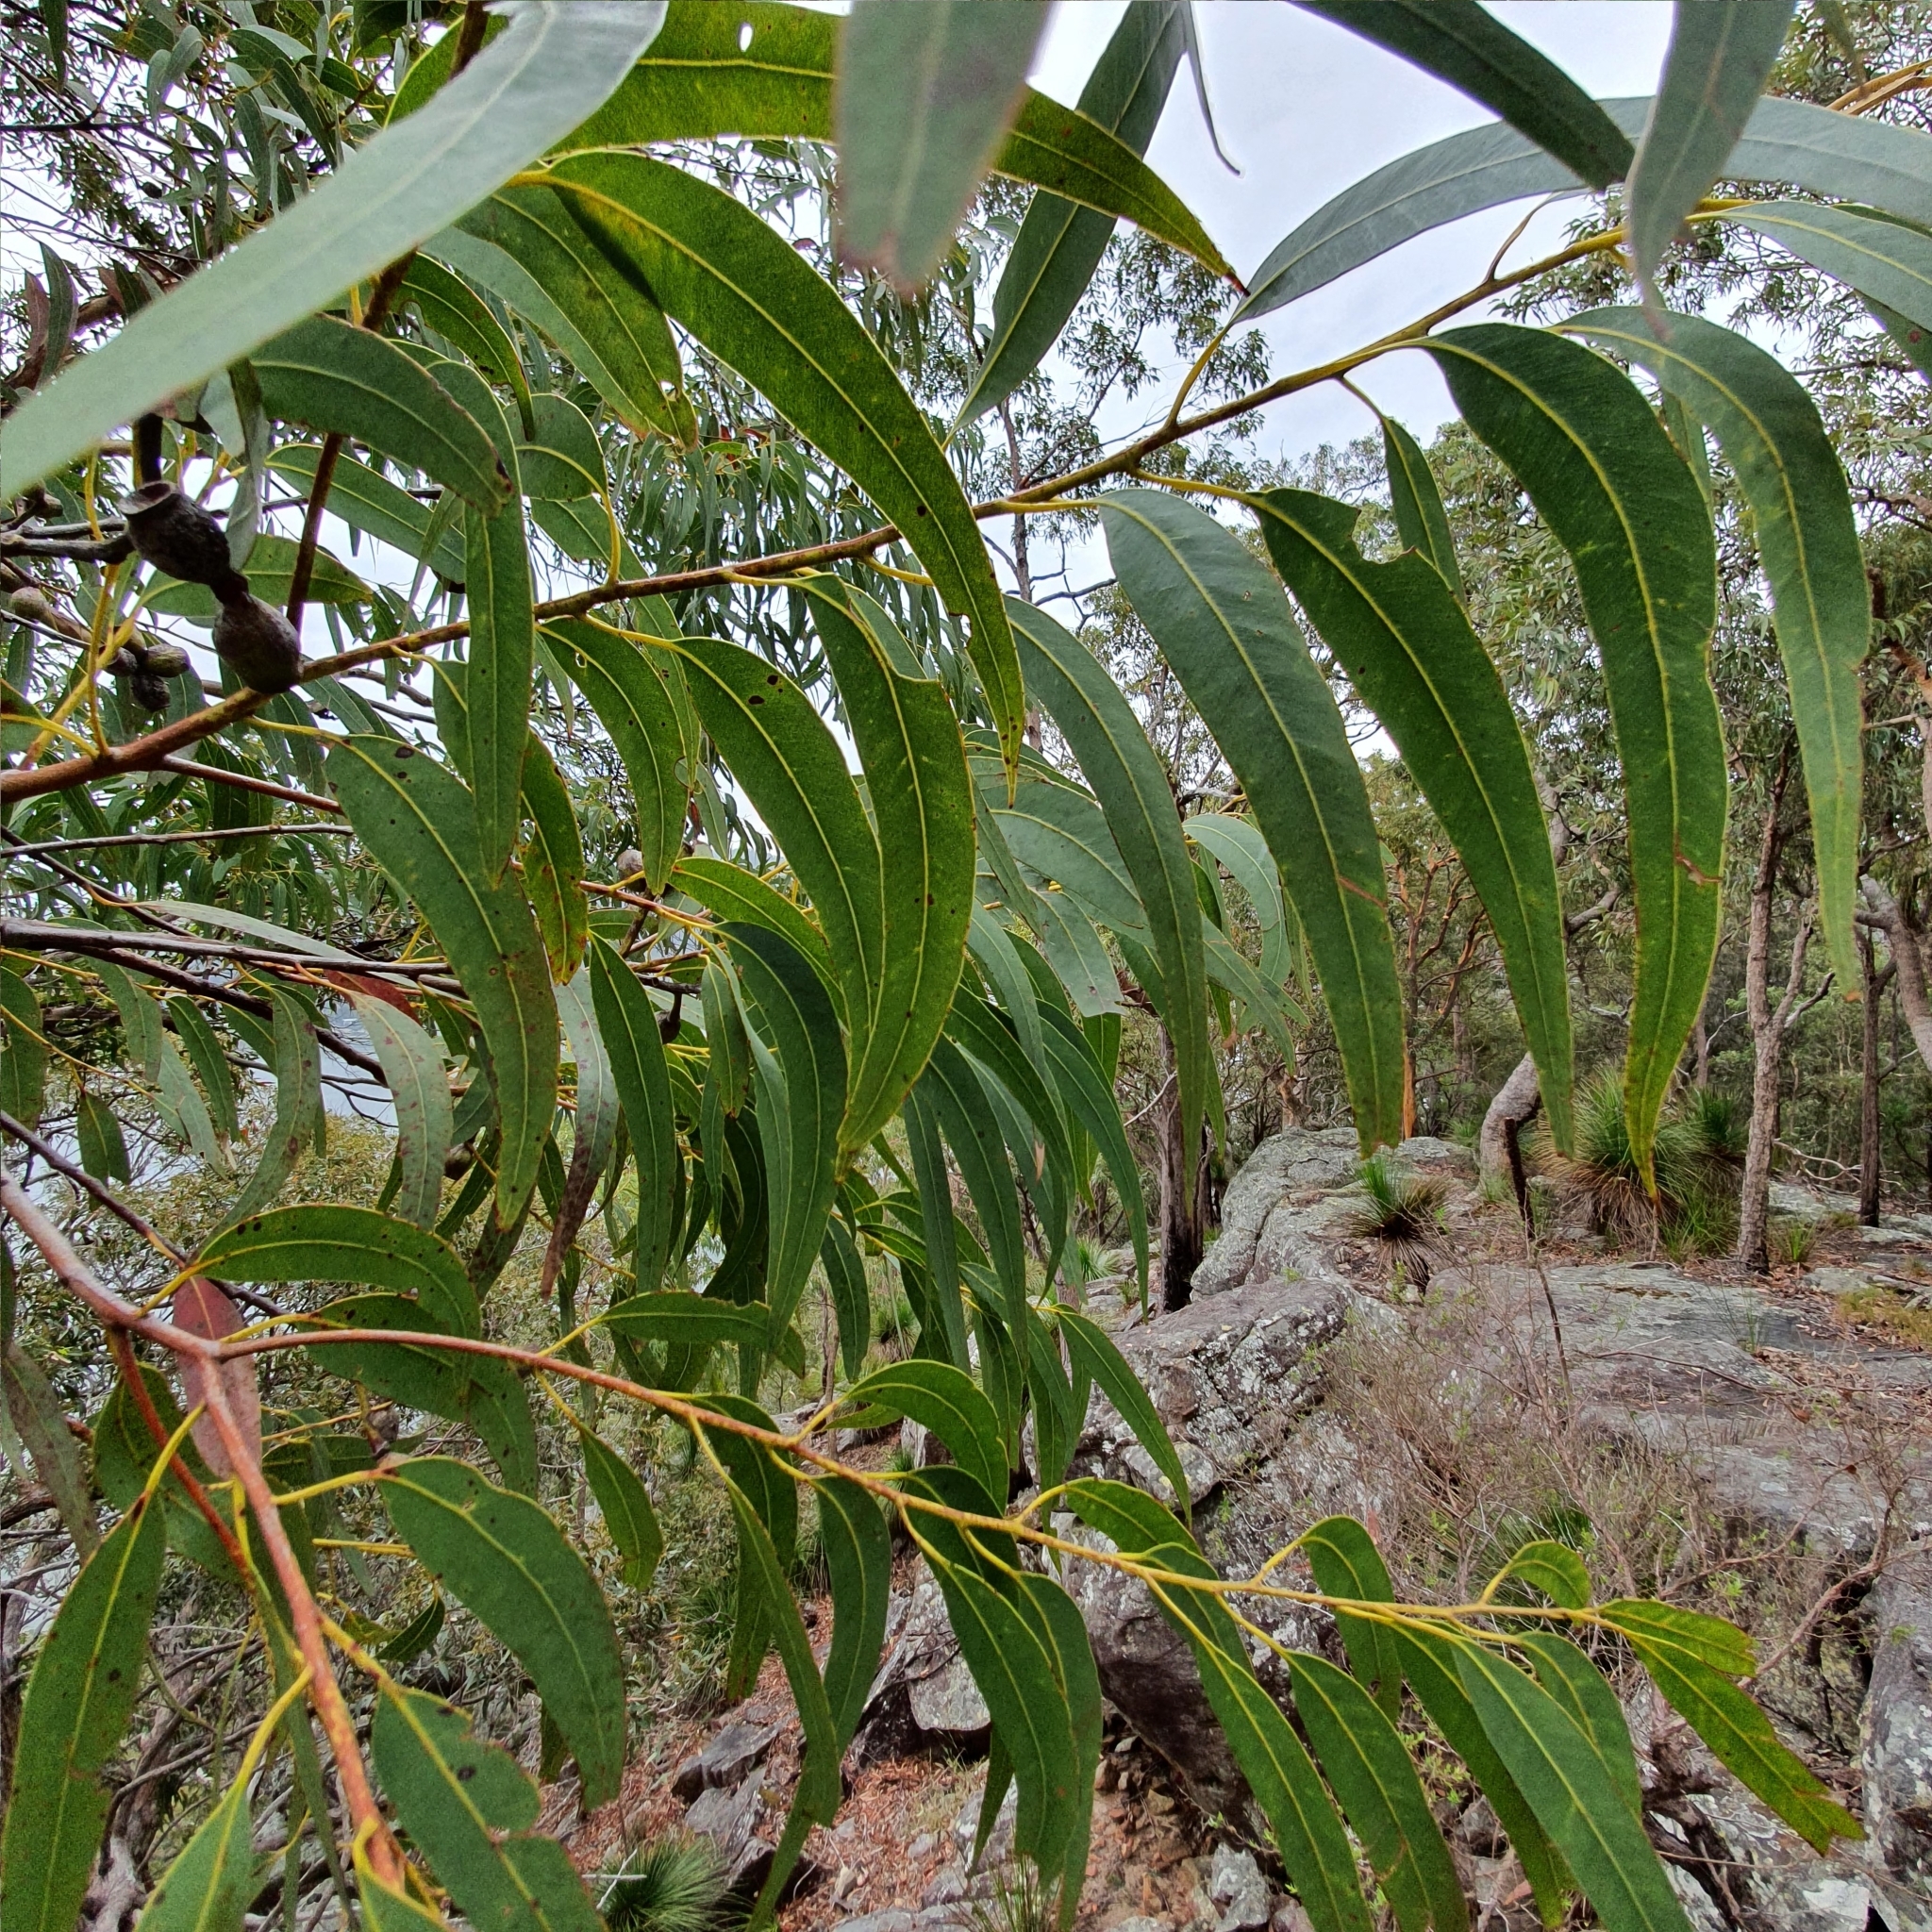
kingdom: Plantae
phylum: Tracheophyta
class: Magnoliopsida
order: Myrtales
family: Myrtaceae
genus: Corymbia
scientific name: Corymbia eximia
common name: Yellow bloodwood
